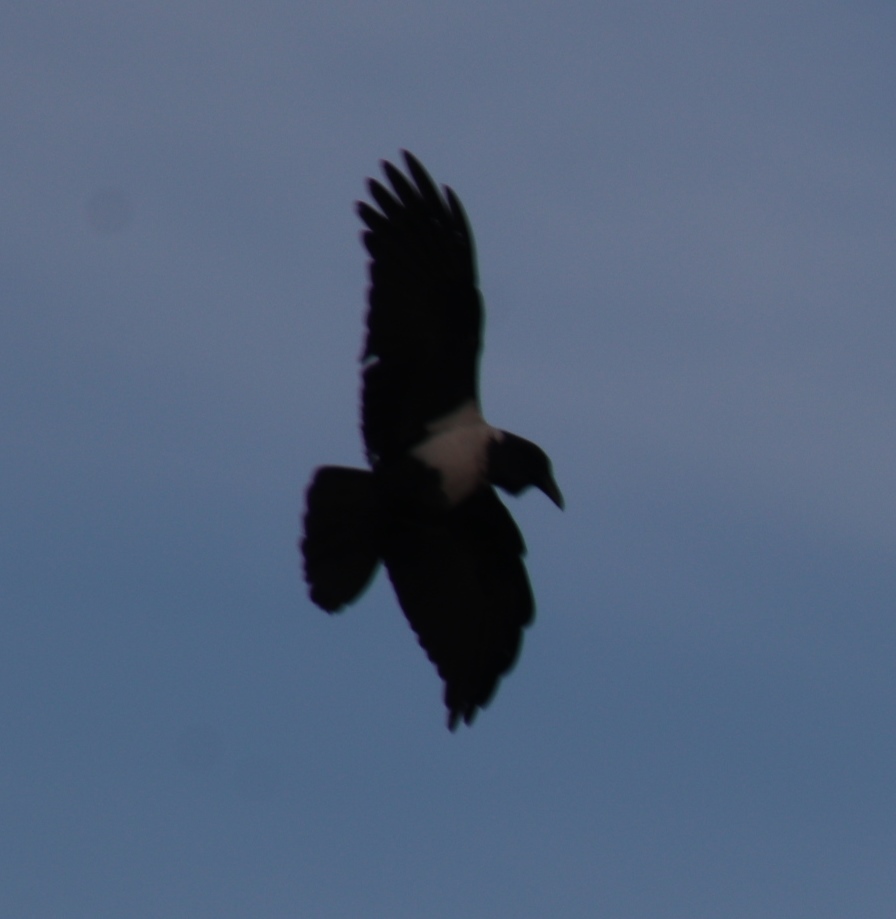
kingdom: Animalia
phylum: Chordata
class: Aves
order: Passeriformes
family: Corvidae
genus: Corvus
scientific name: Corvus albus
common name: Pied crow
